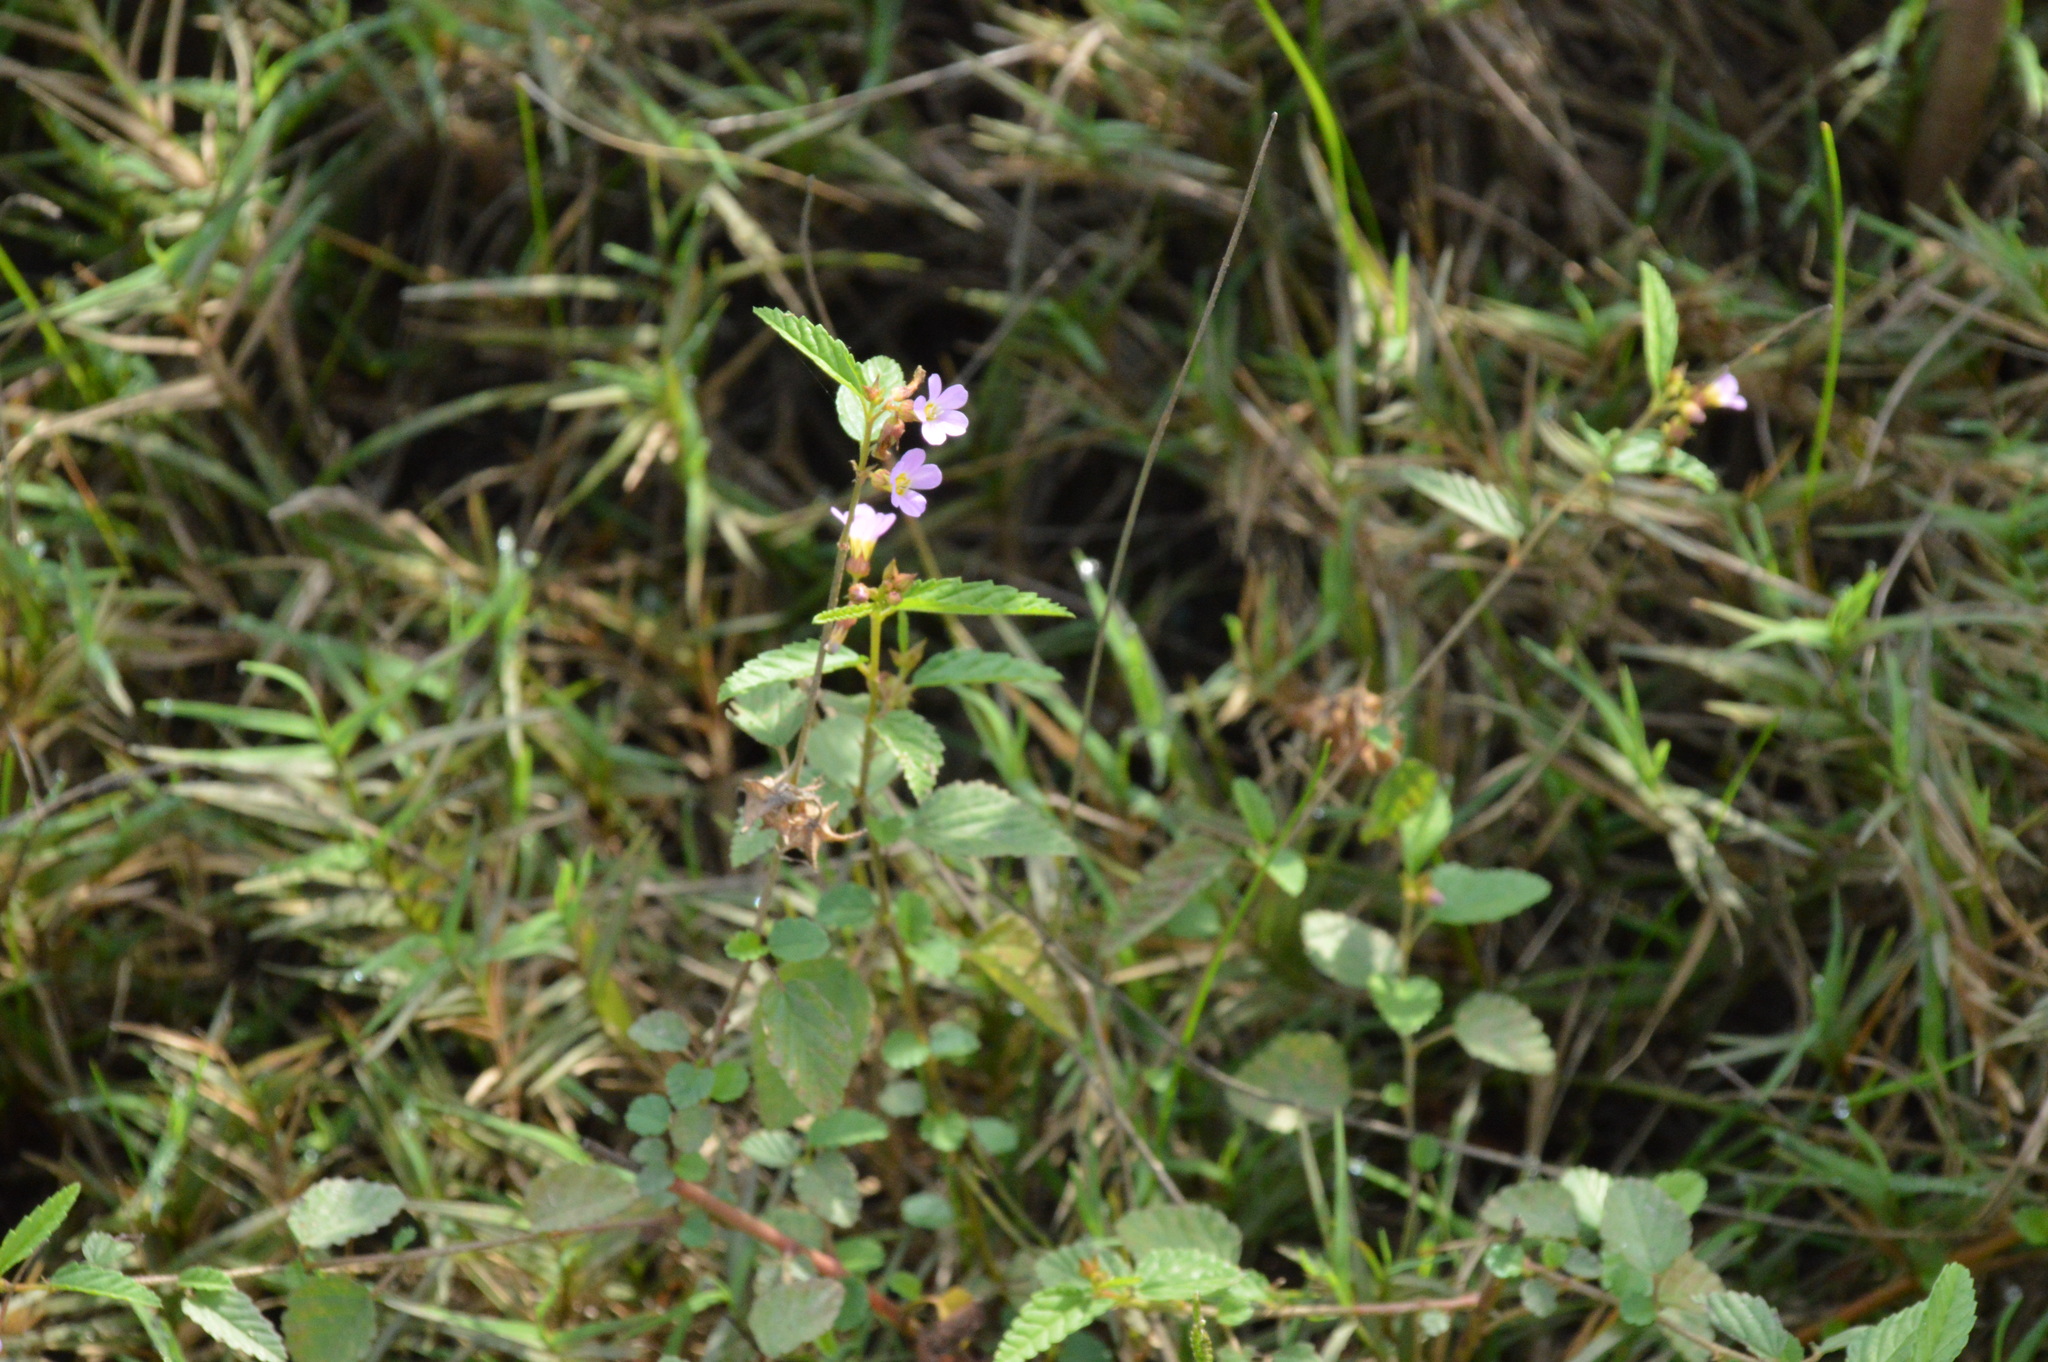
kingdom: Plantae
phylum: Tracheophyta
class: Magnoliopsida
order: Malvales
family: Malvaceae
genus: Melochia
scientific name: Melochia pyramidata
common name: Pyramidflower
